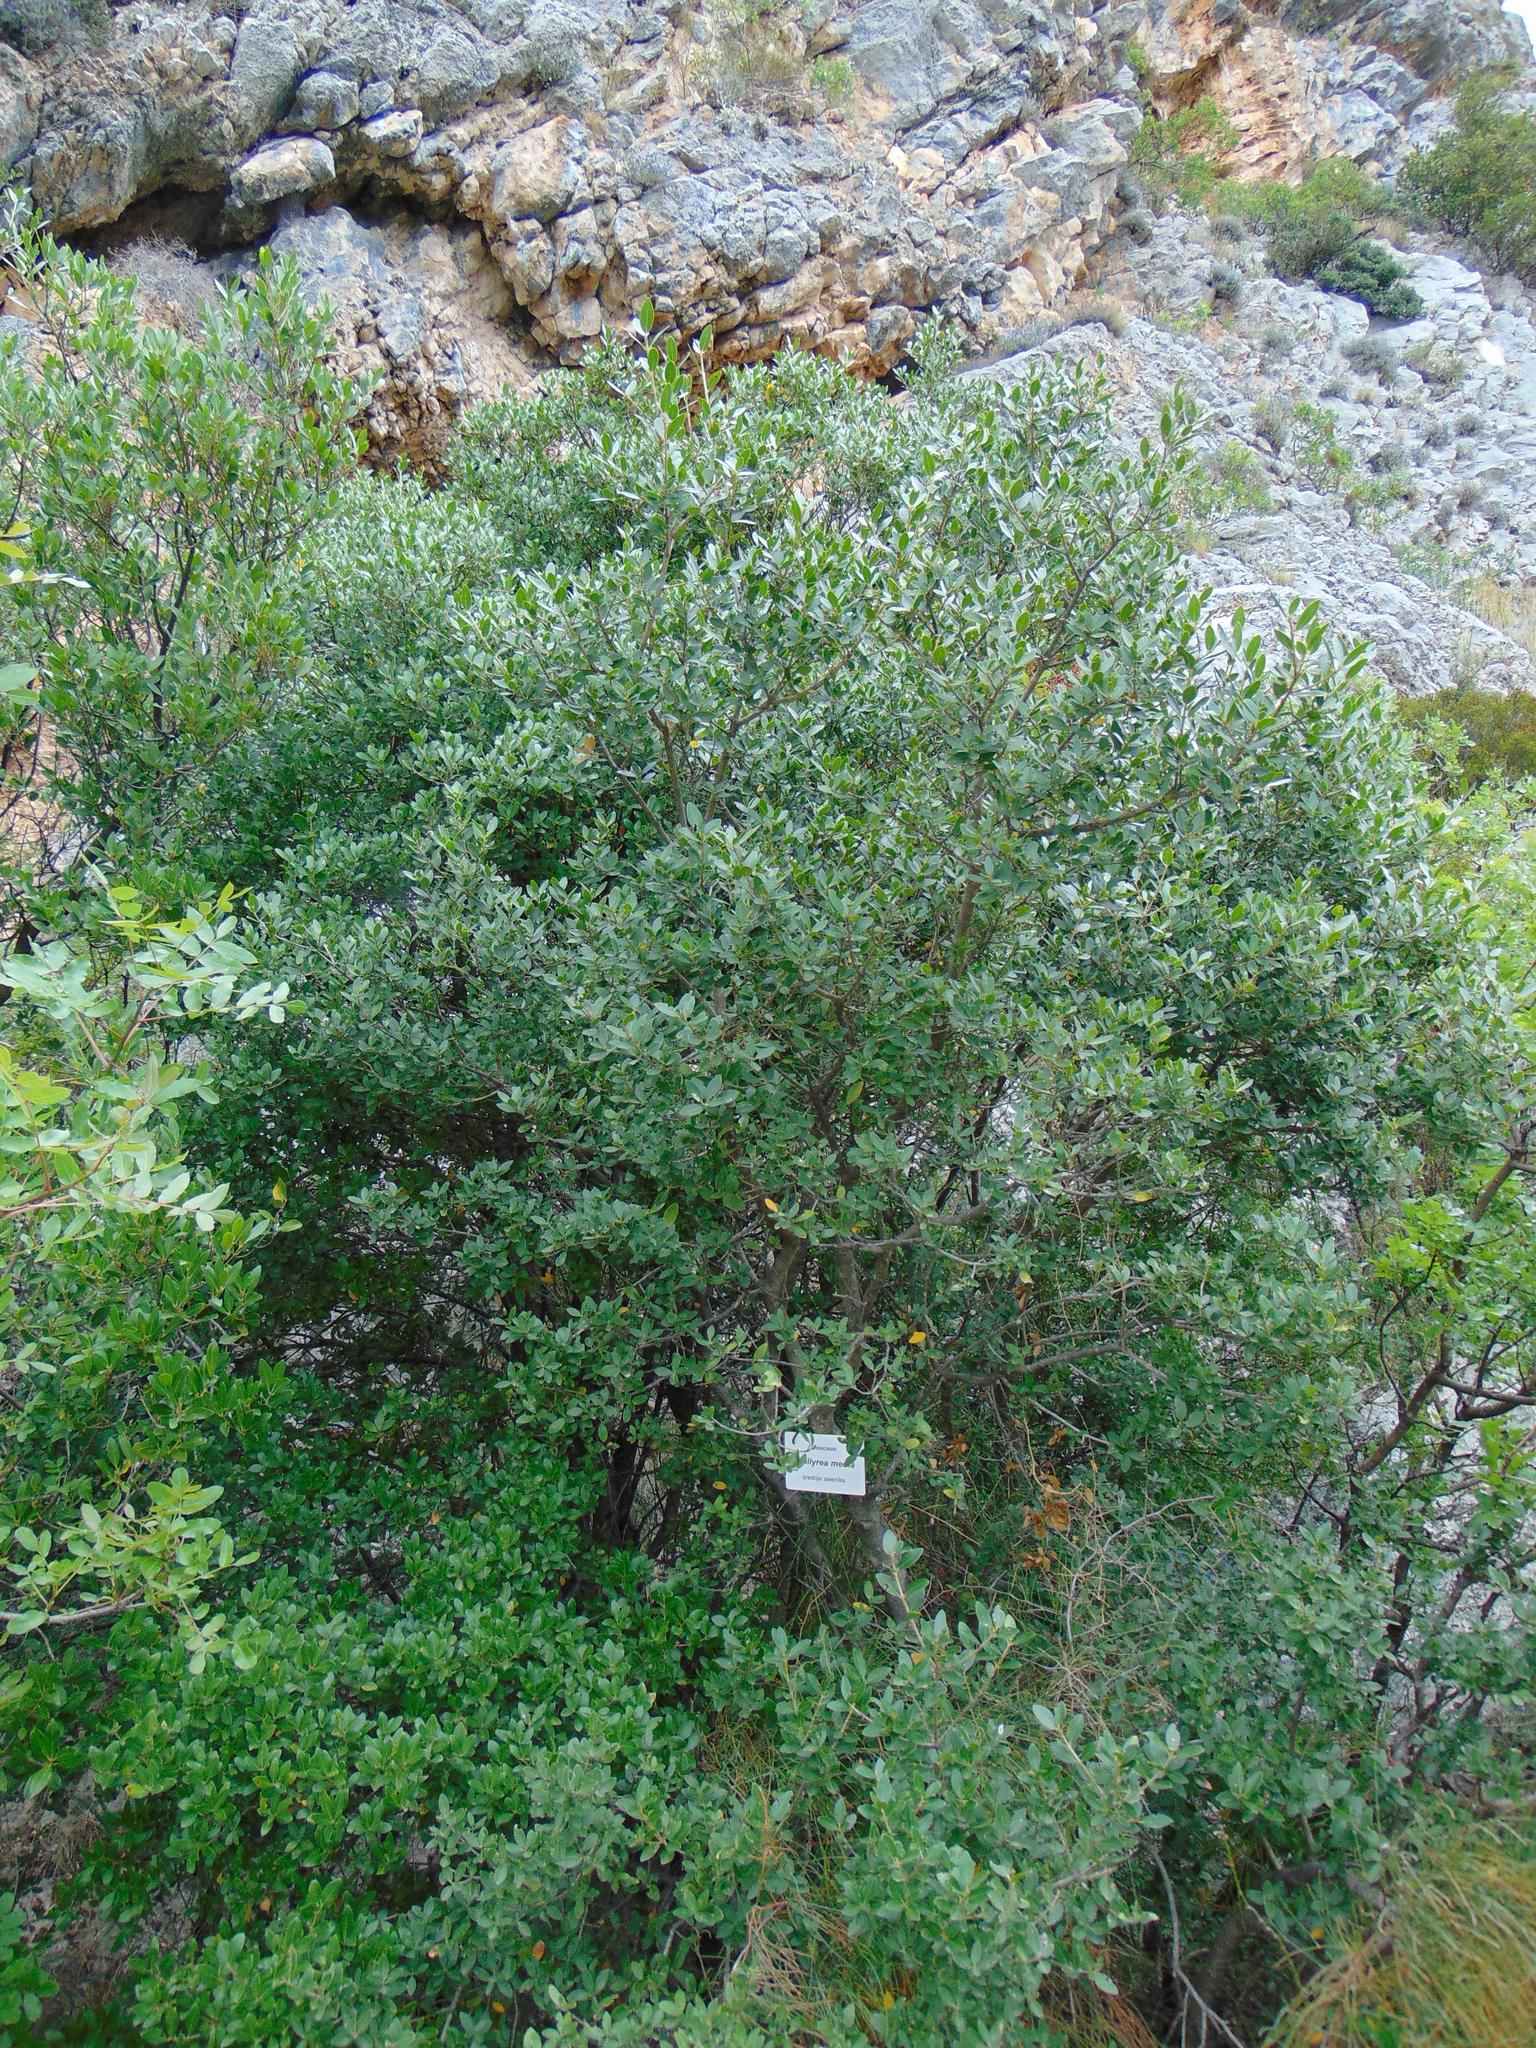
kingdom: Plantae
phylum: Tracheophyta
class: Magnoliopsida
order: Lamiales
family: Oleaceae
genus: Phillyrea
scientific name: Phillyrea latifolia
